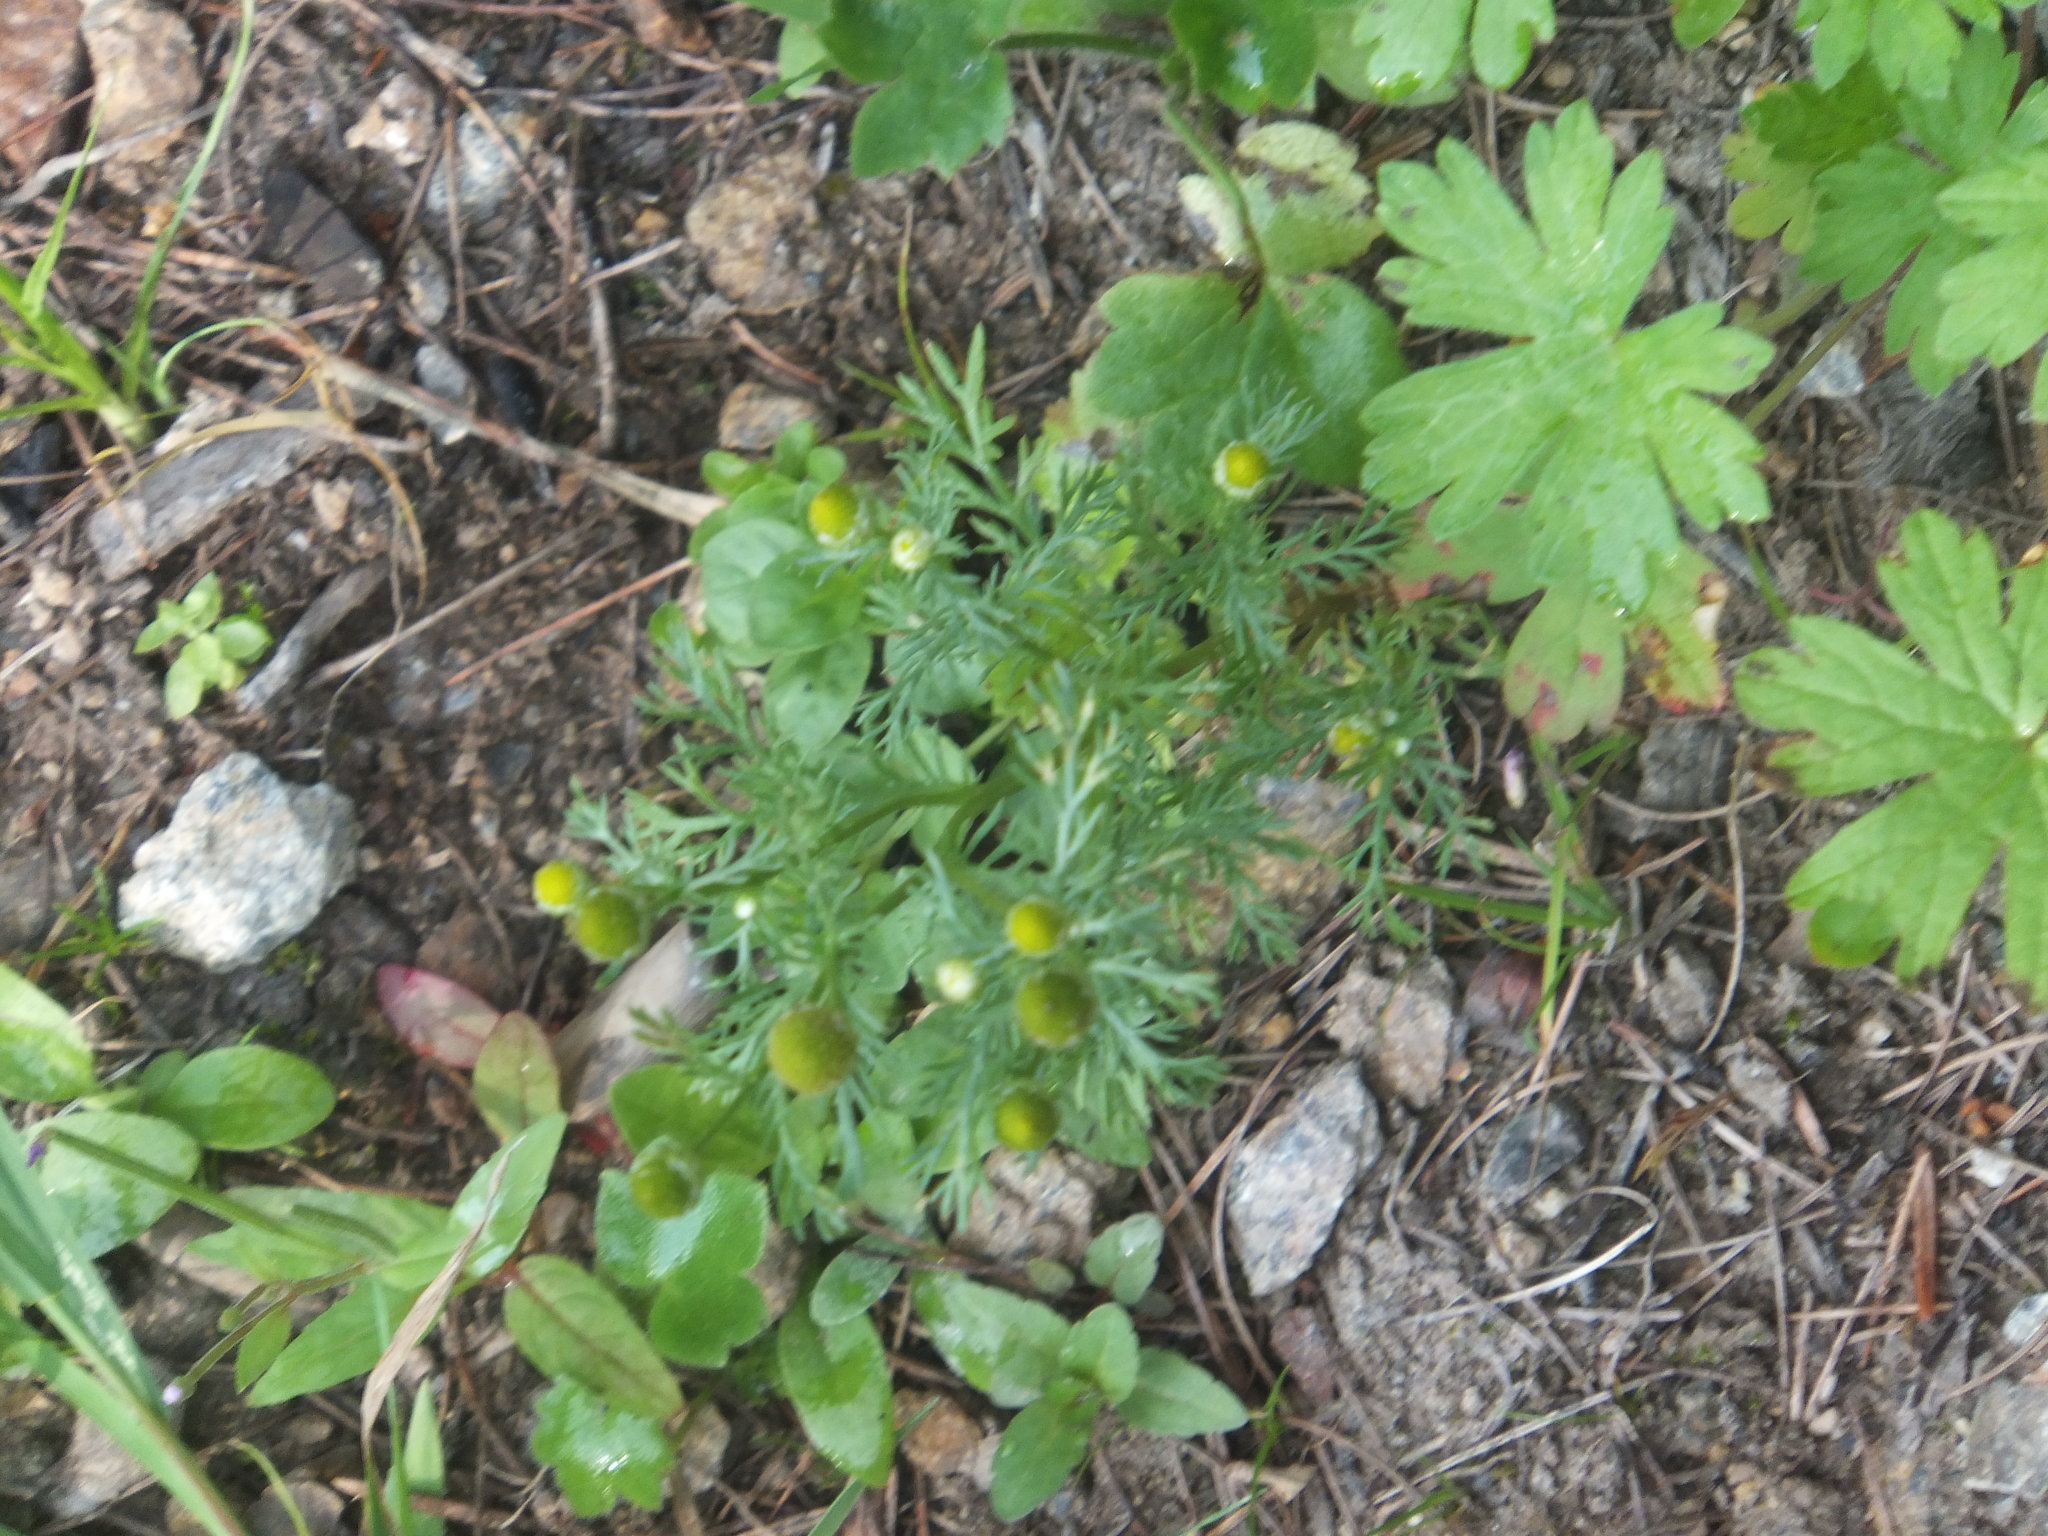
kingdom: Plantae
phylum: Tracheophyta
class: Magnoliopsida
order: Asterales
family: Asteraceae
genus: Matricaria
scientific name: Matricaria discoidea
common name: Disc mayweed
